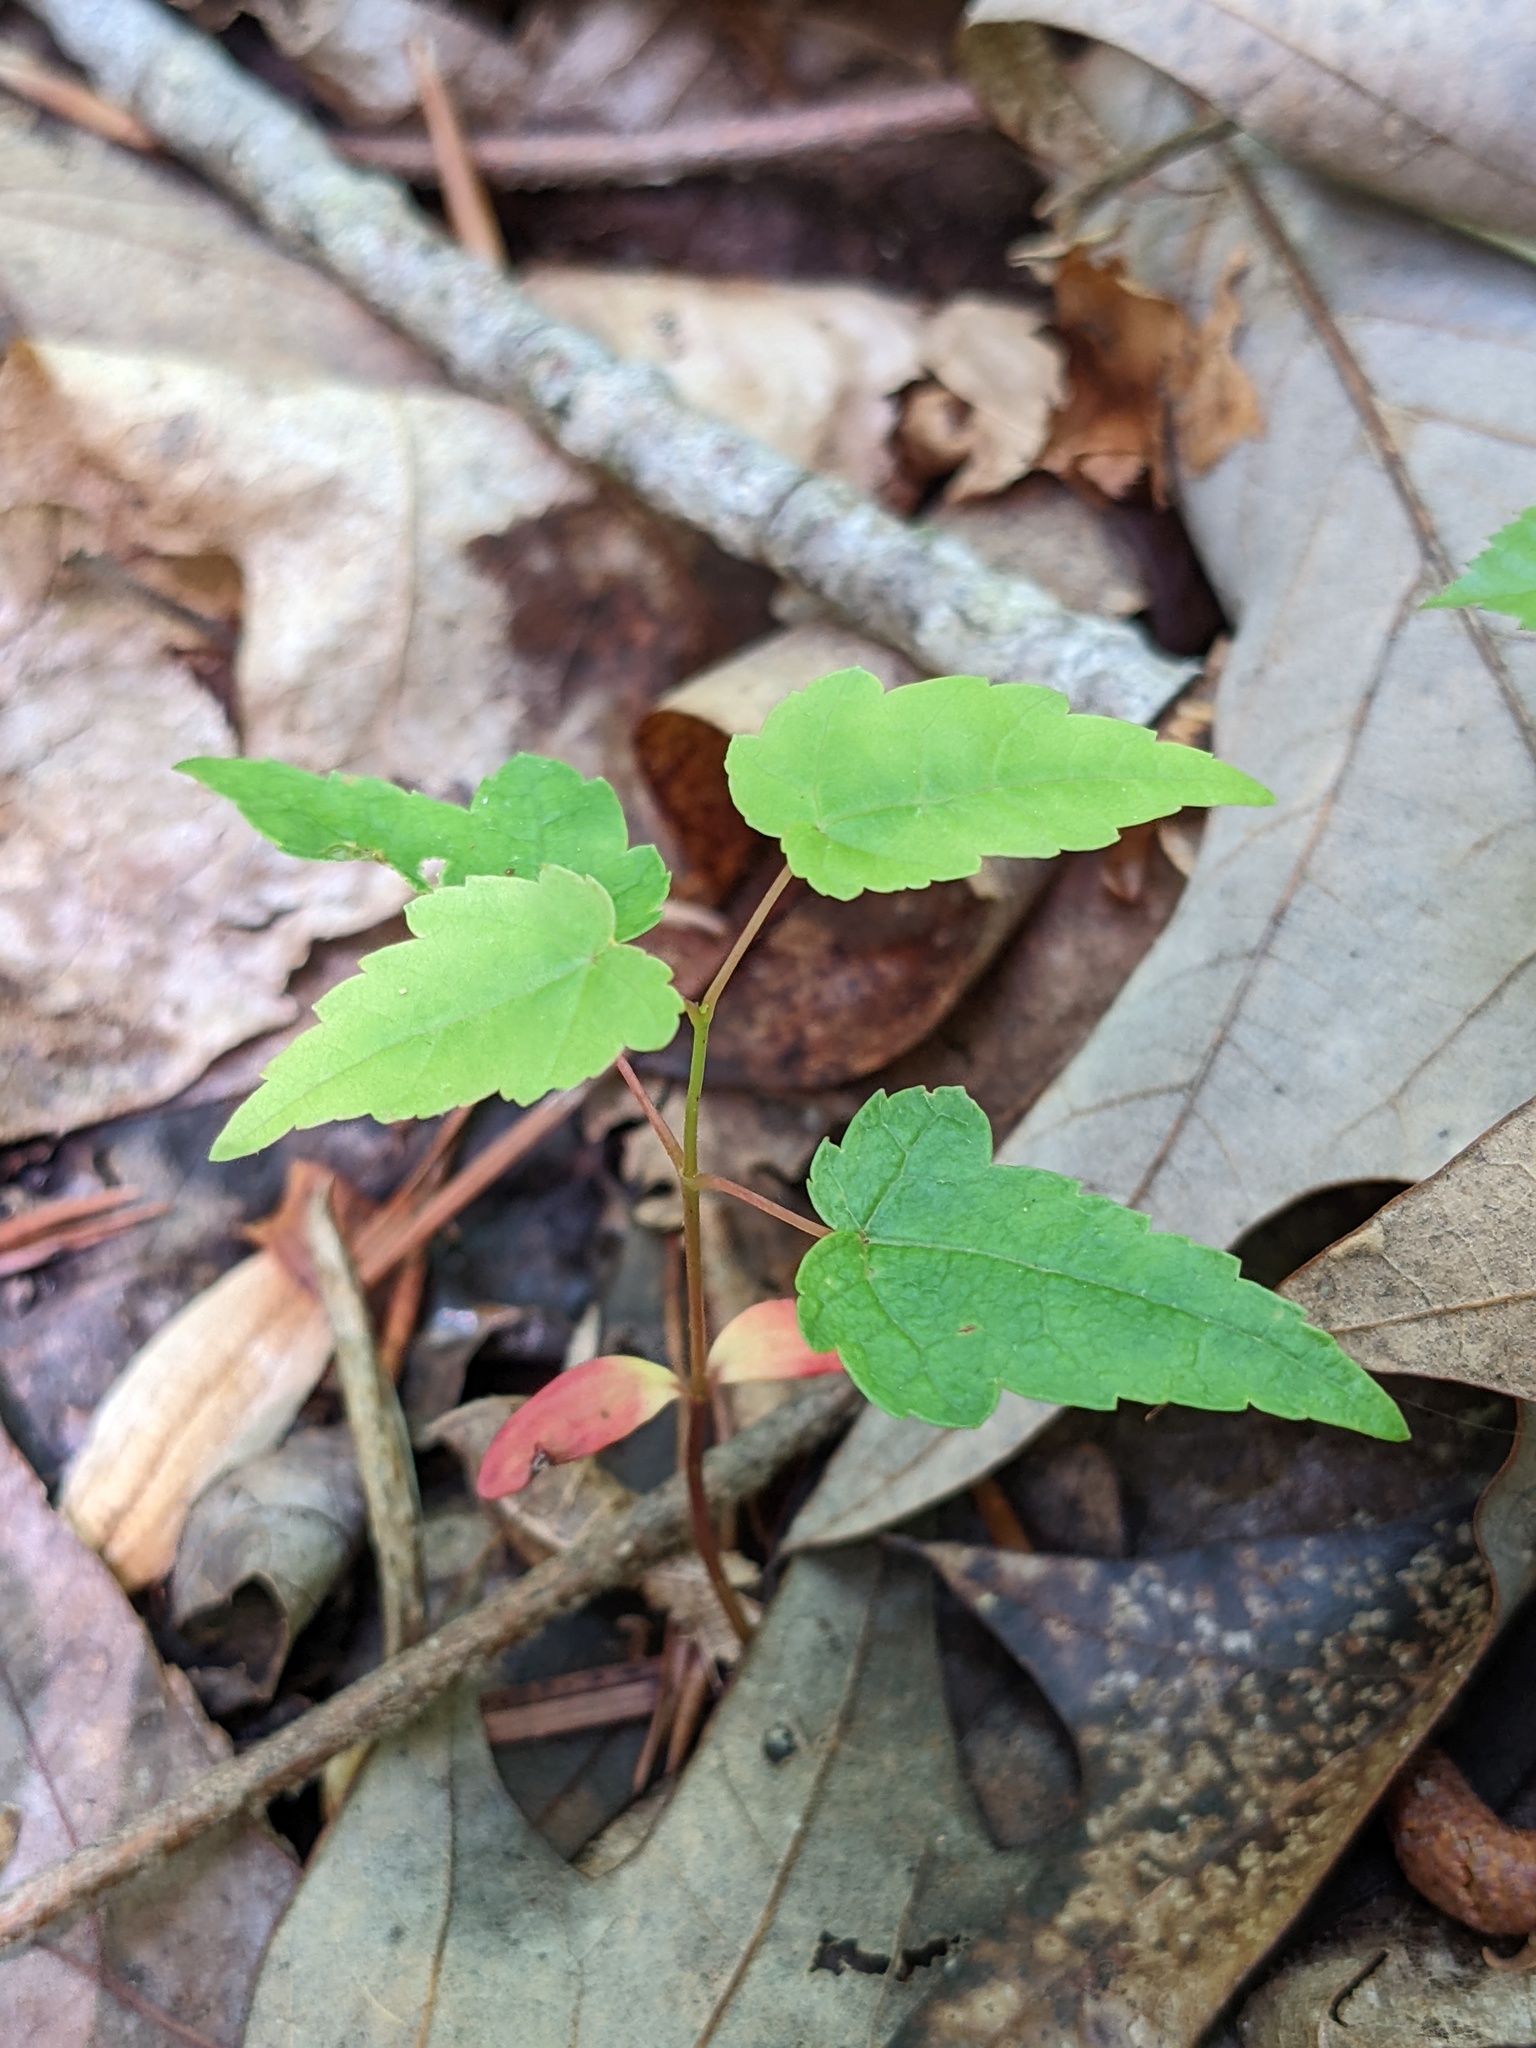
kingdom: Plantae
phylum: Tracheophyta
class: Magnoliopsida
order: Sapindales
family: Sapindaceae
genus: Acer
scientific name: Acer rubrum
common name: Red maple
